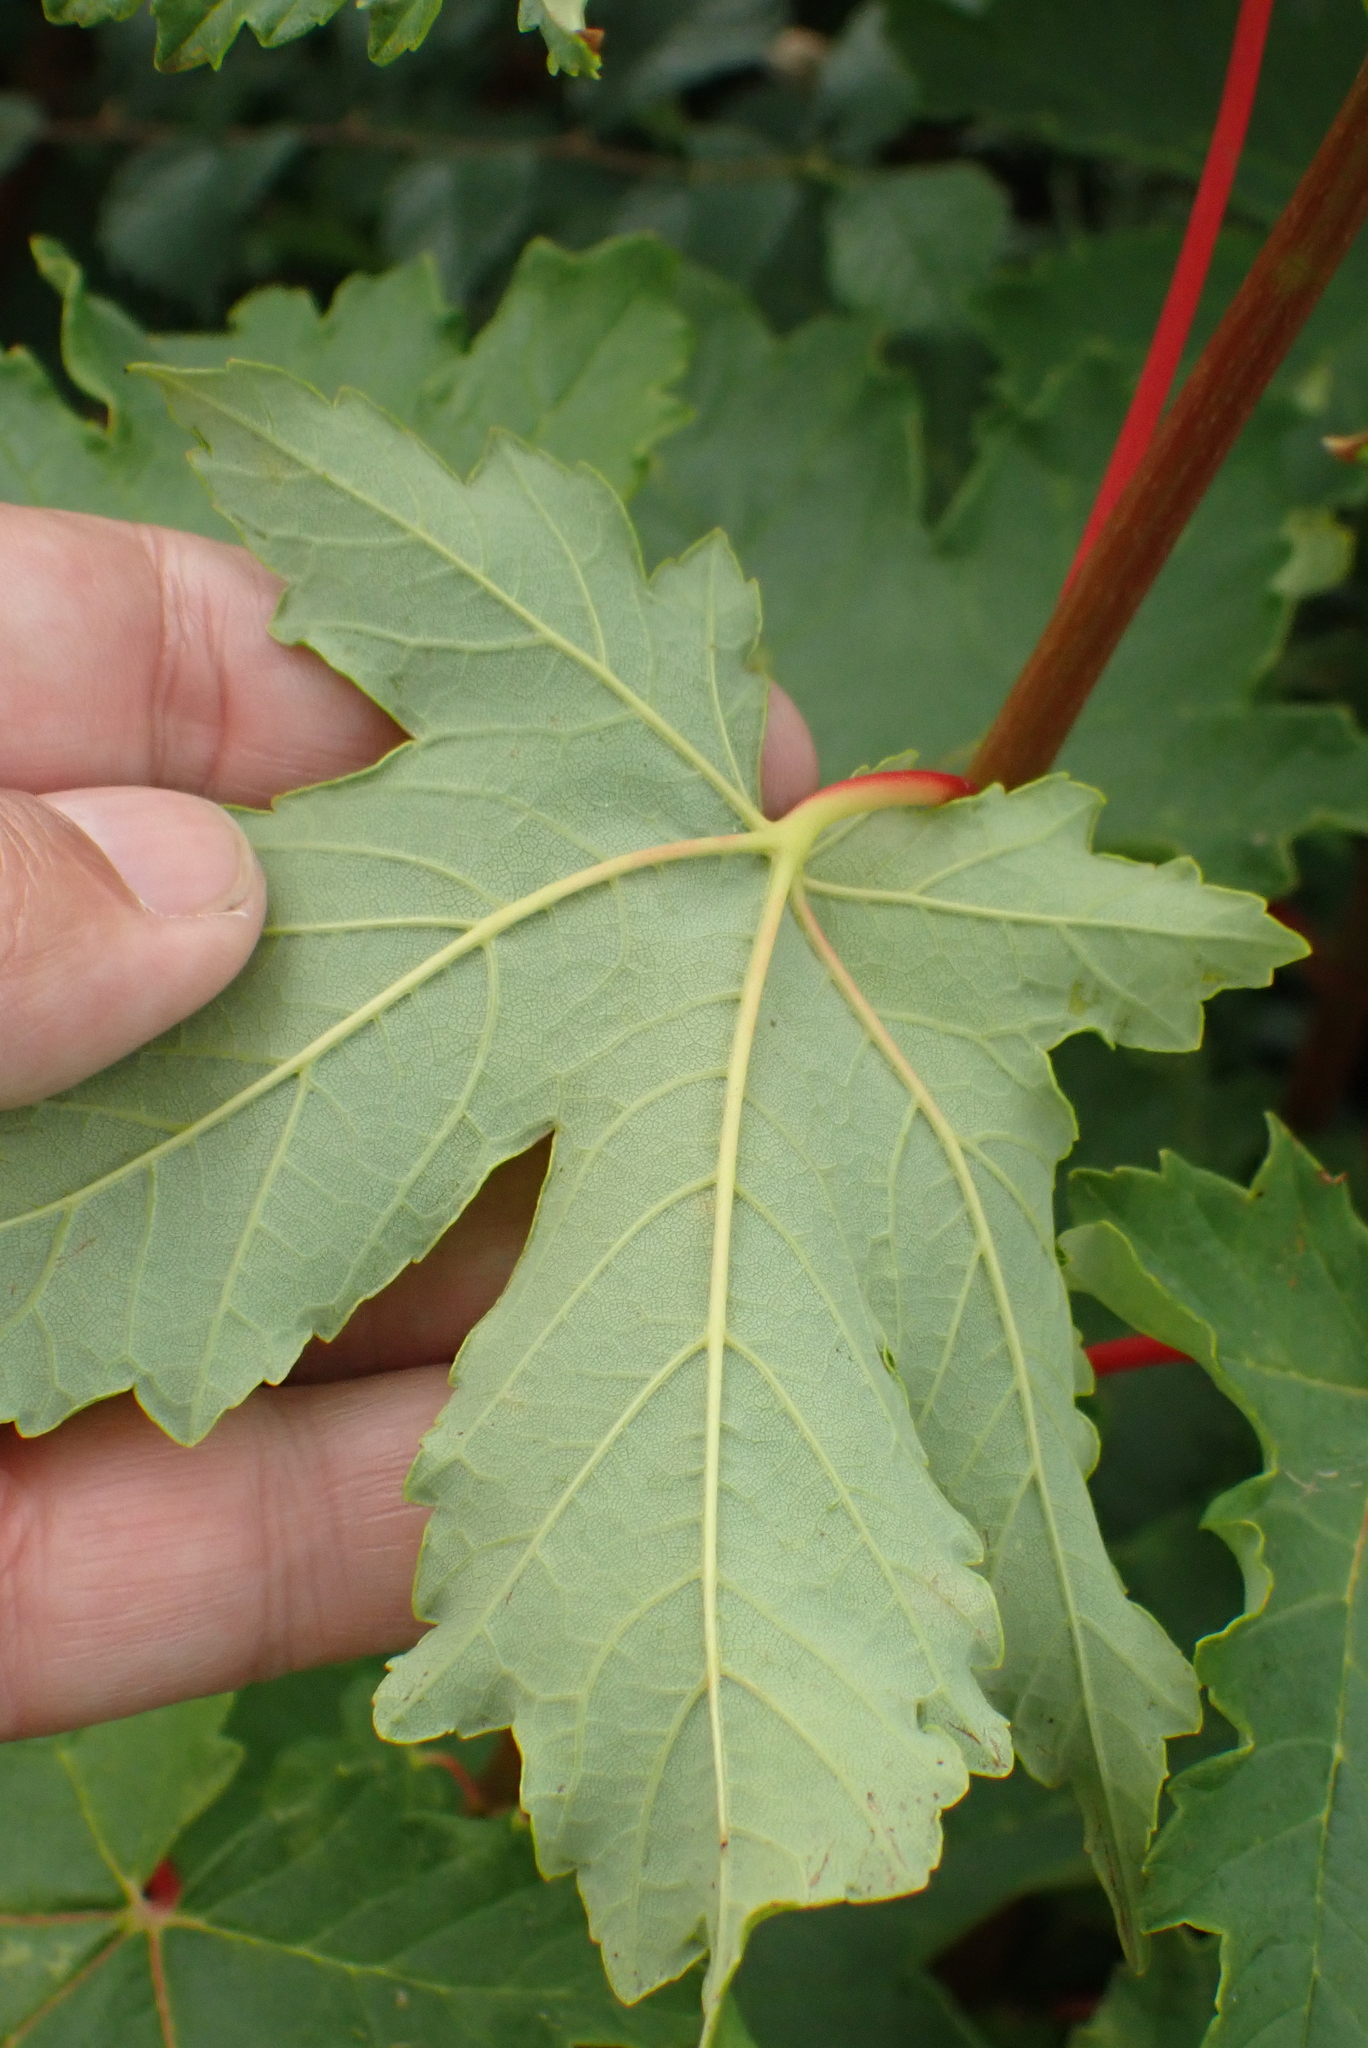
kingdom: Plantae
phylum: Tracheophyta
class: Magnoliopsida
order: Sapindales
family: Sapindaceae
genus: Acer
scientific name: Acer pseudoplatanus
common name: Sycamore
